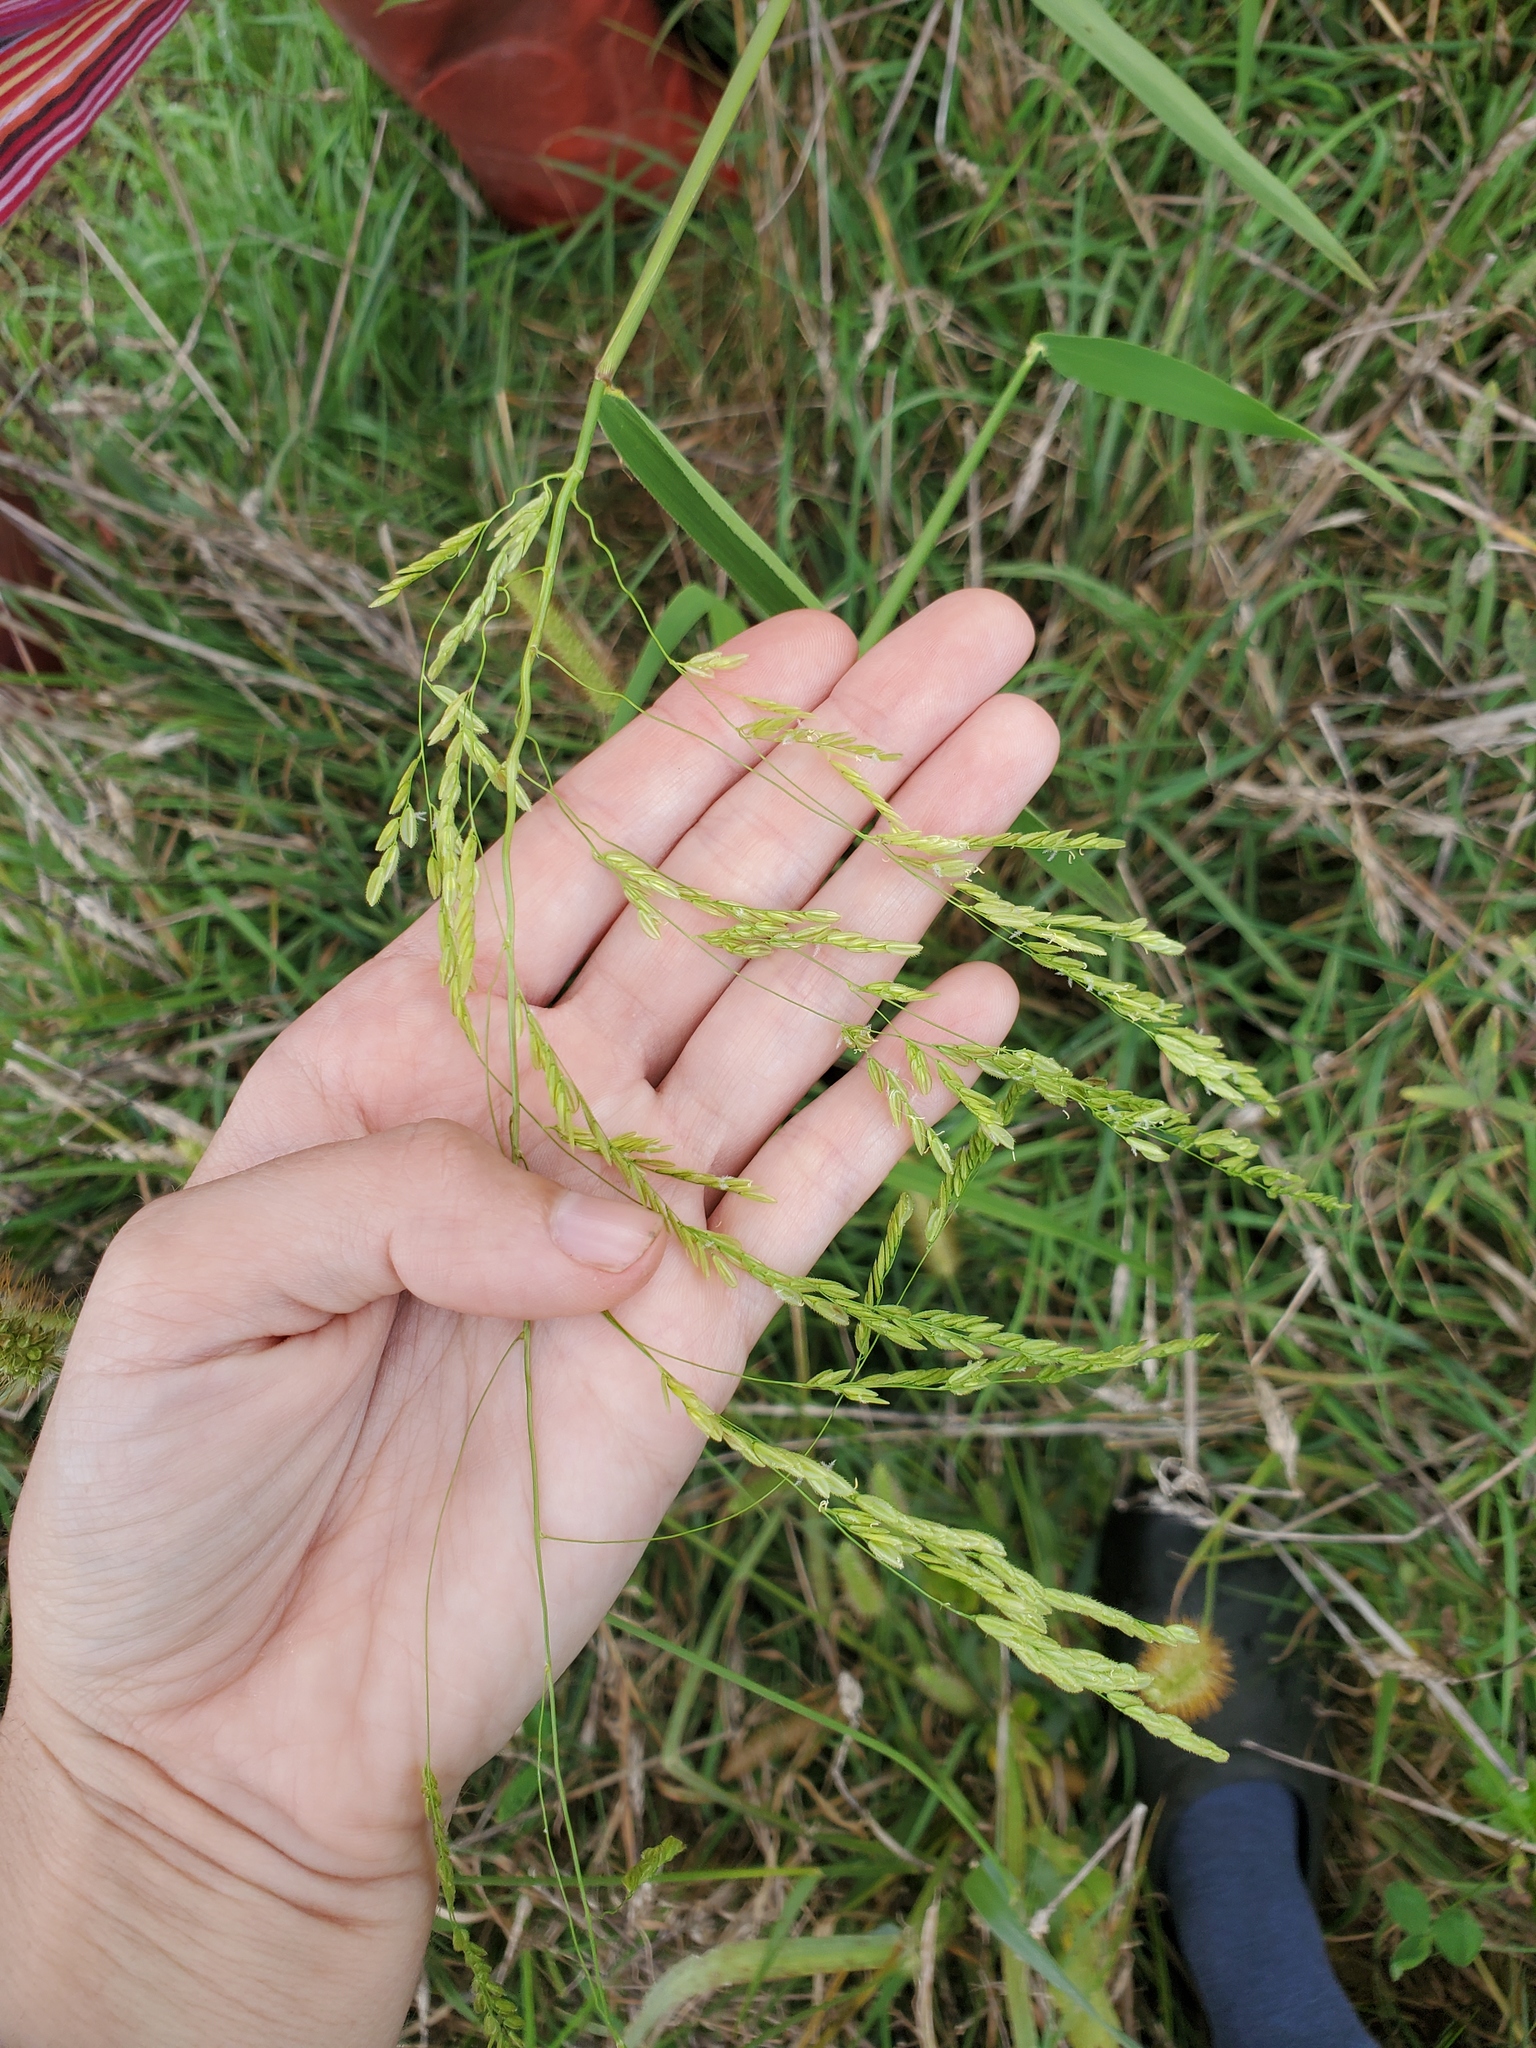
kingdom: Plantae
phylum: Tracheophyta
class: Liliopsida
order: Poales
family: Poaceae
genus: Leersia
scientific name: Leersia oryzoides
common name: Cut-grass
